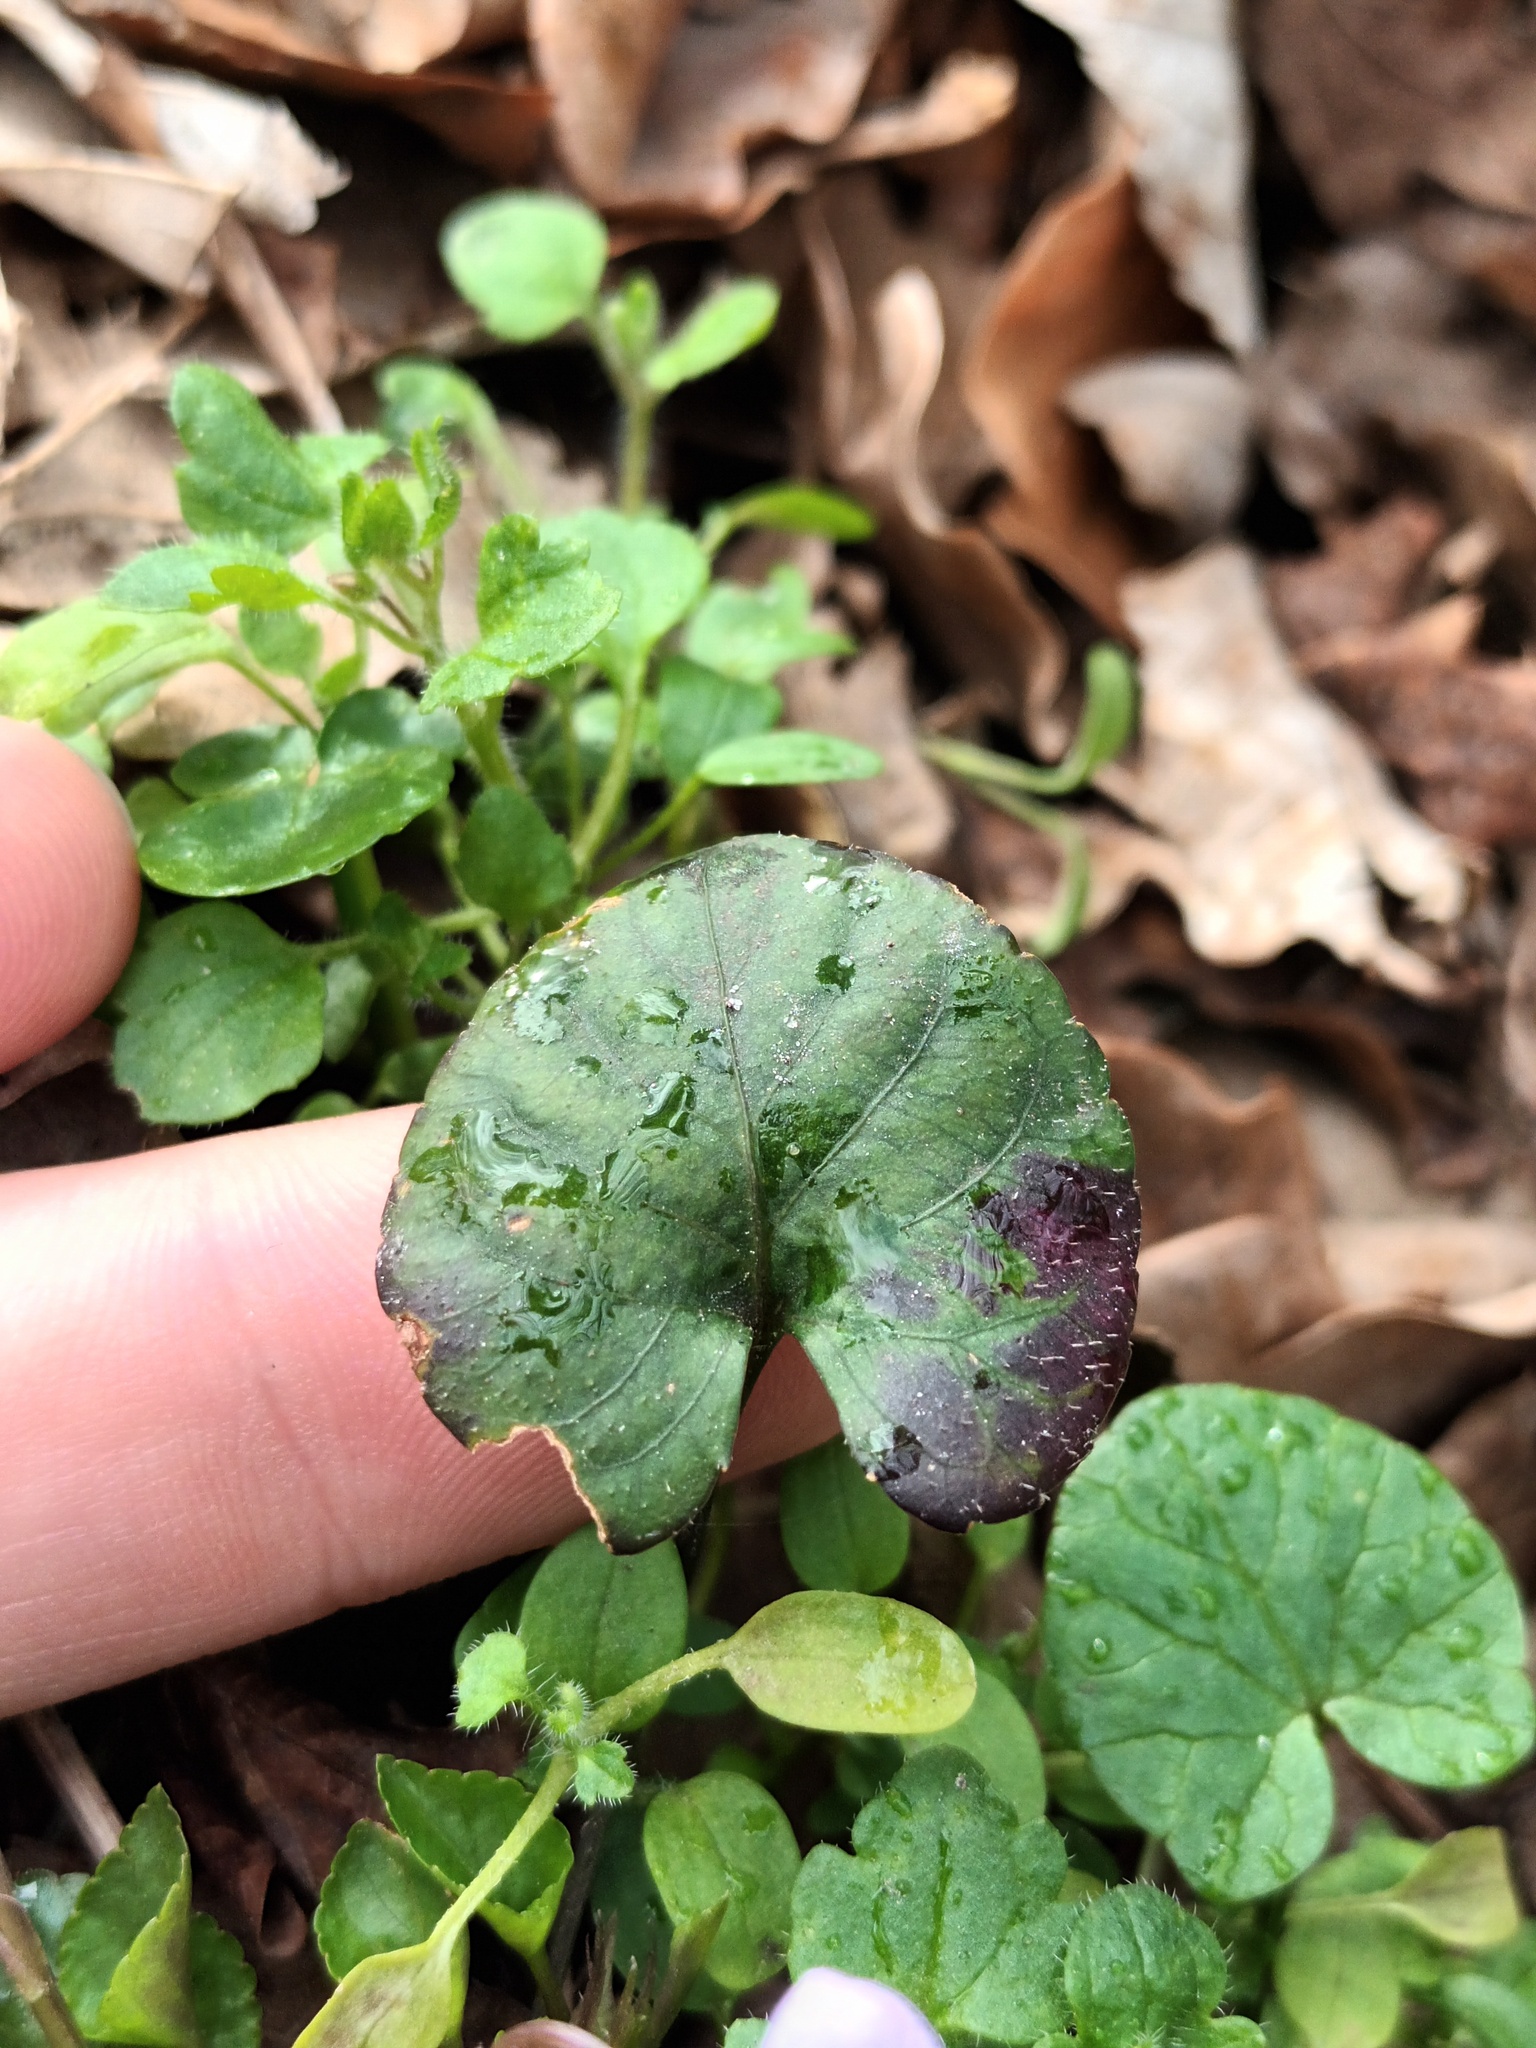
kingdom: Plantae
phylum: Tracheophyta
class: Magnoliopsida
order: Malpighiales
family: Violaceae
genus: Viola
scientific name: Viola reichenbachiana
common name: Early dog-violet
